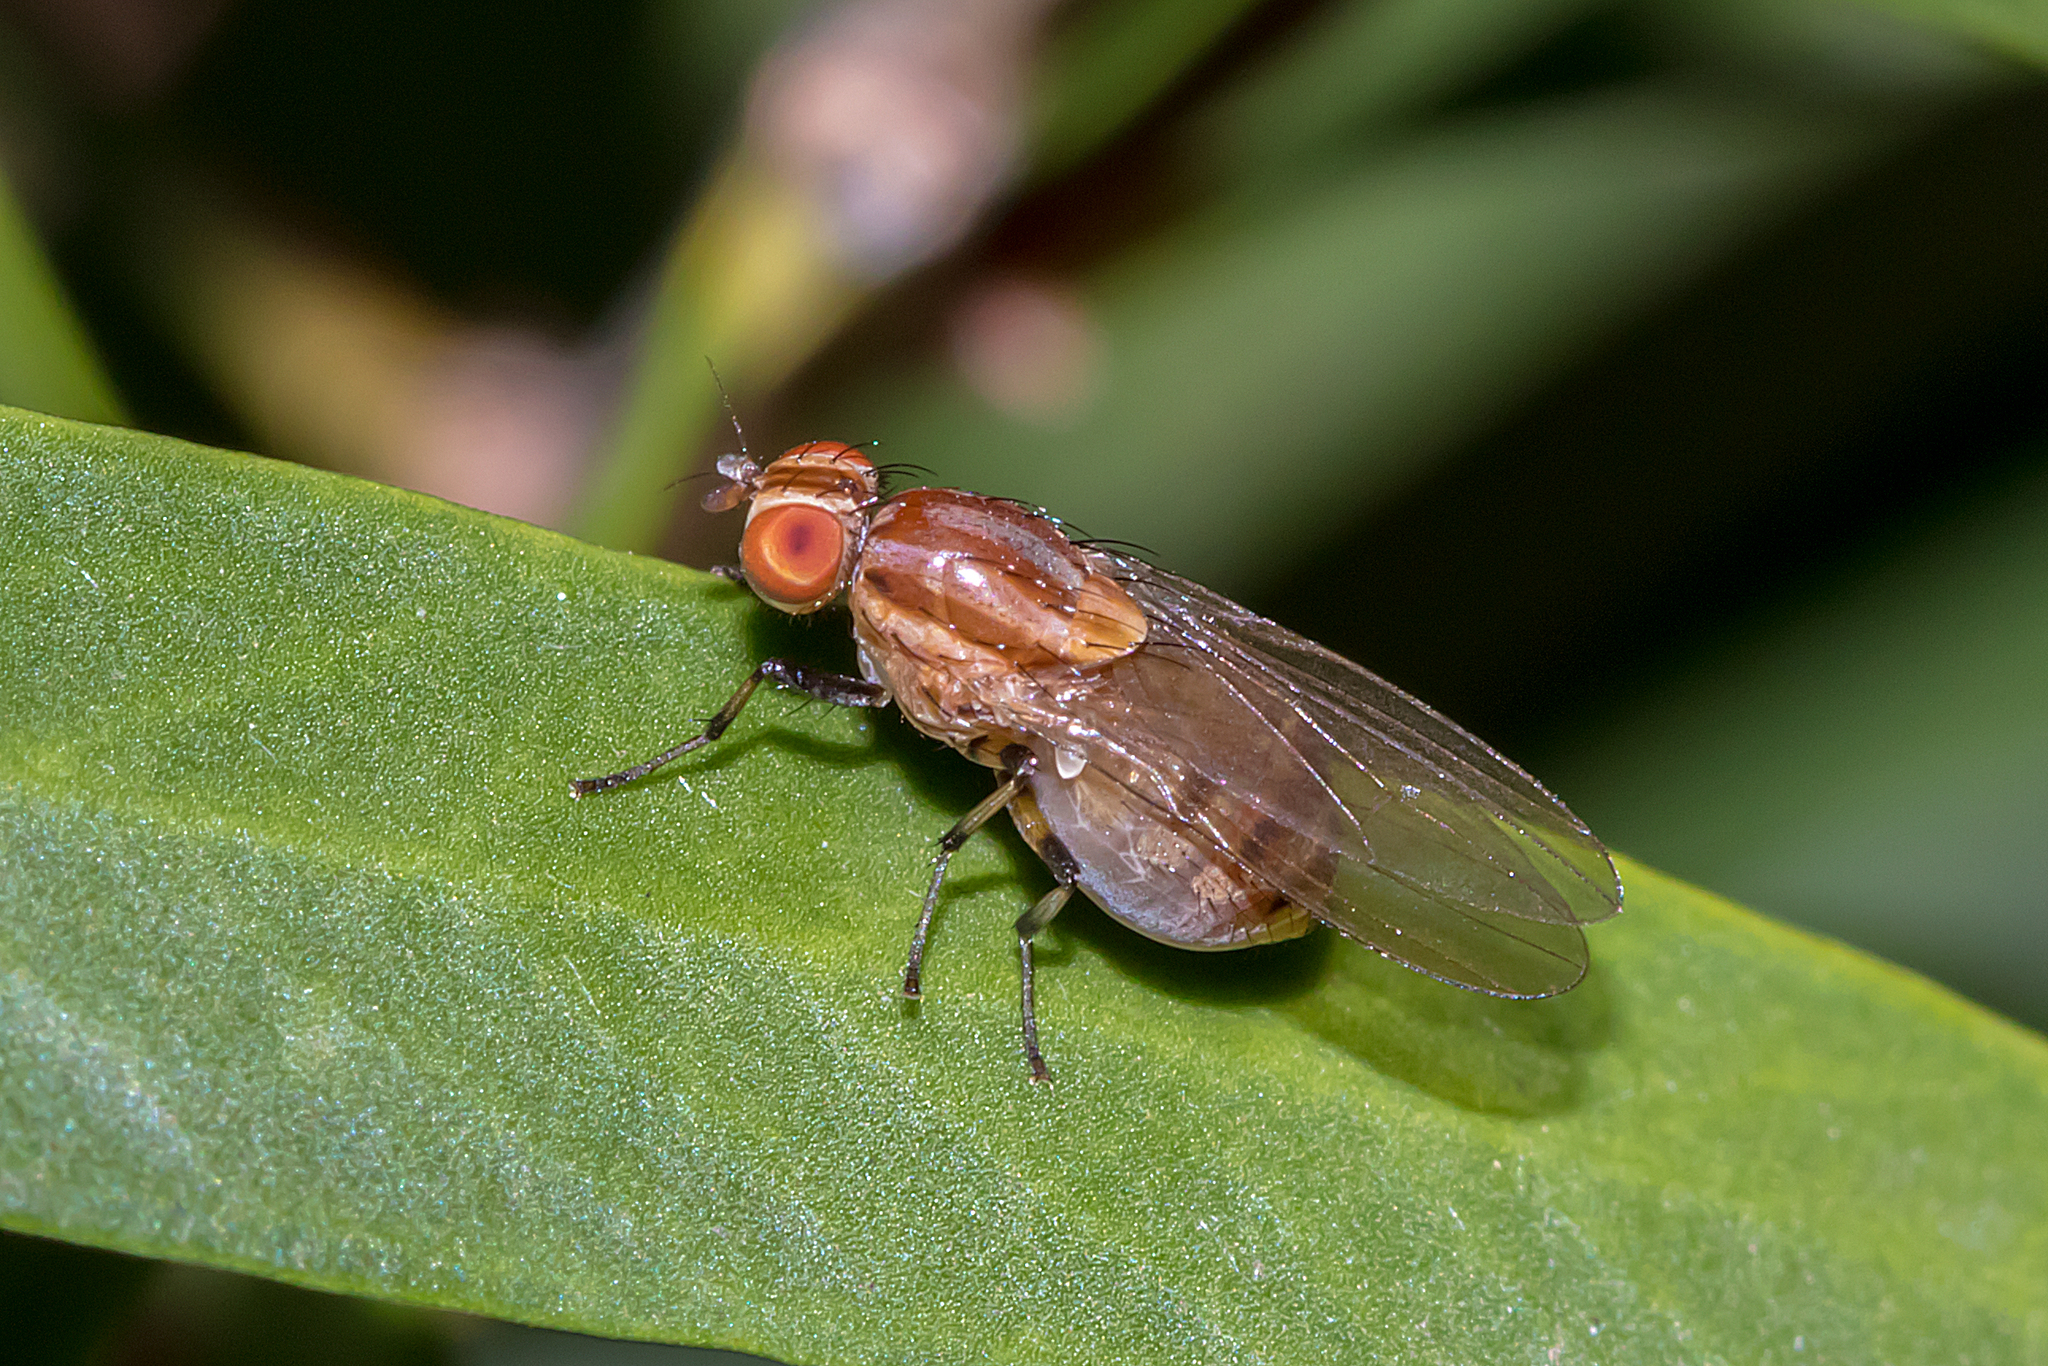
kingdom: Animalia
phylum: Arthropoda
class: Insecta
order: Diptera
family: Lauxaniidae
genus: Sapromyza
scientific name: Sapromyza brunneovittata
